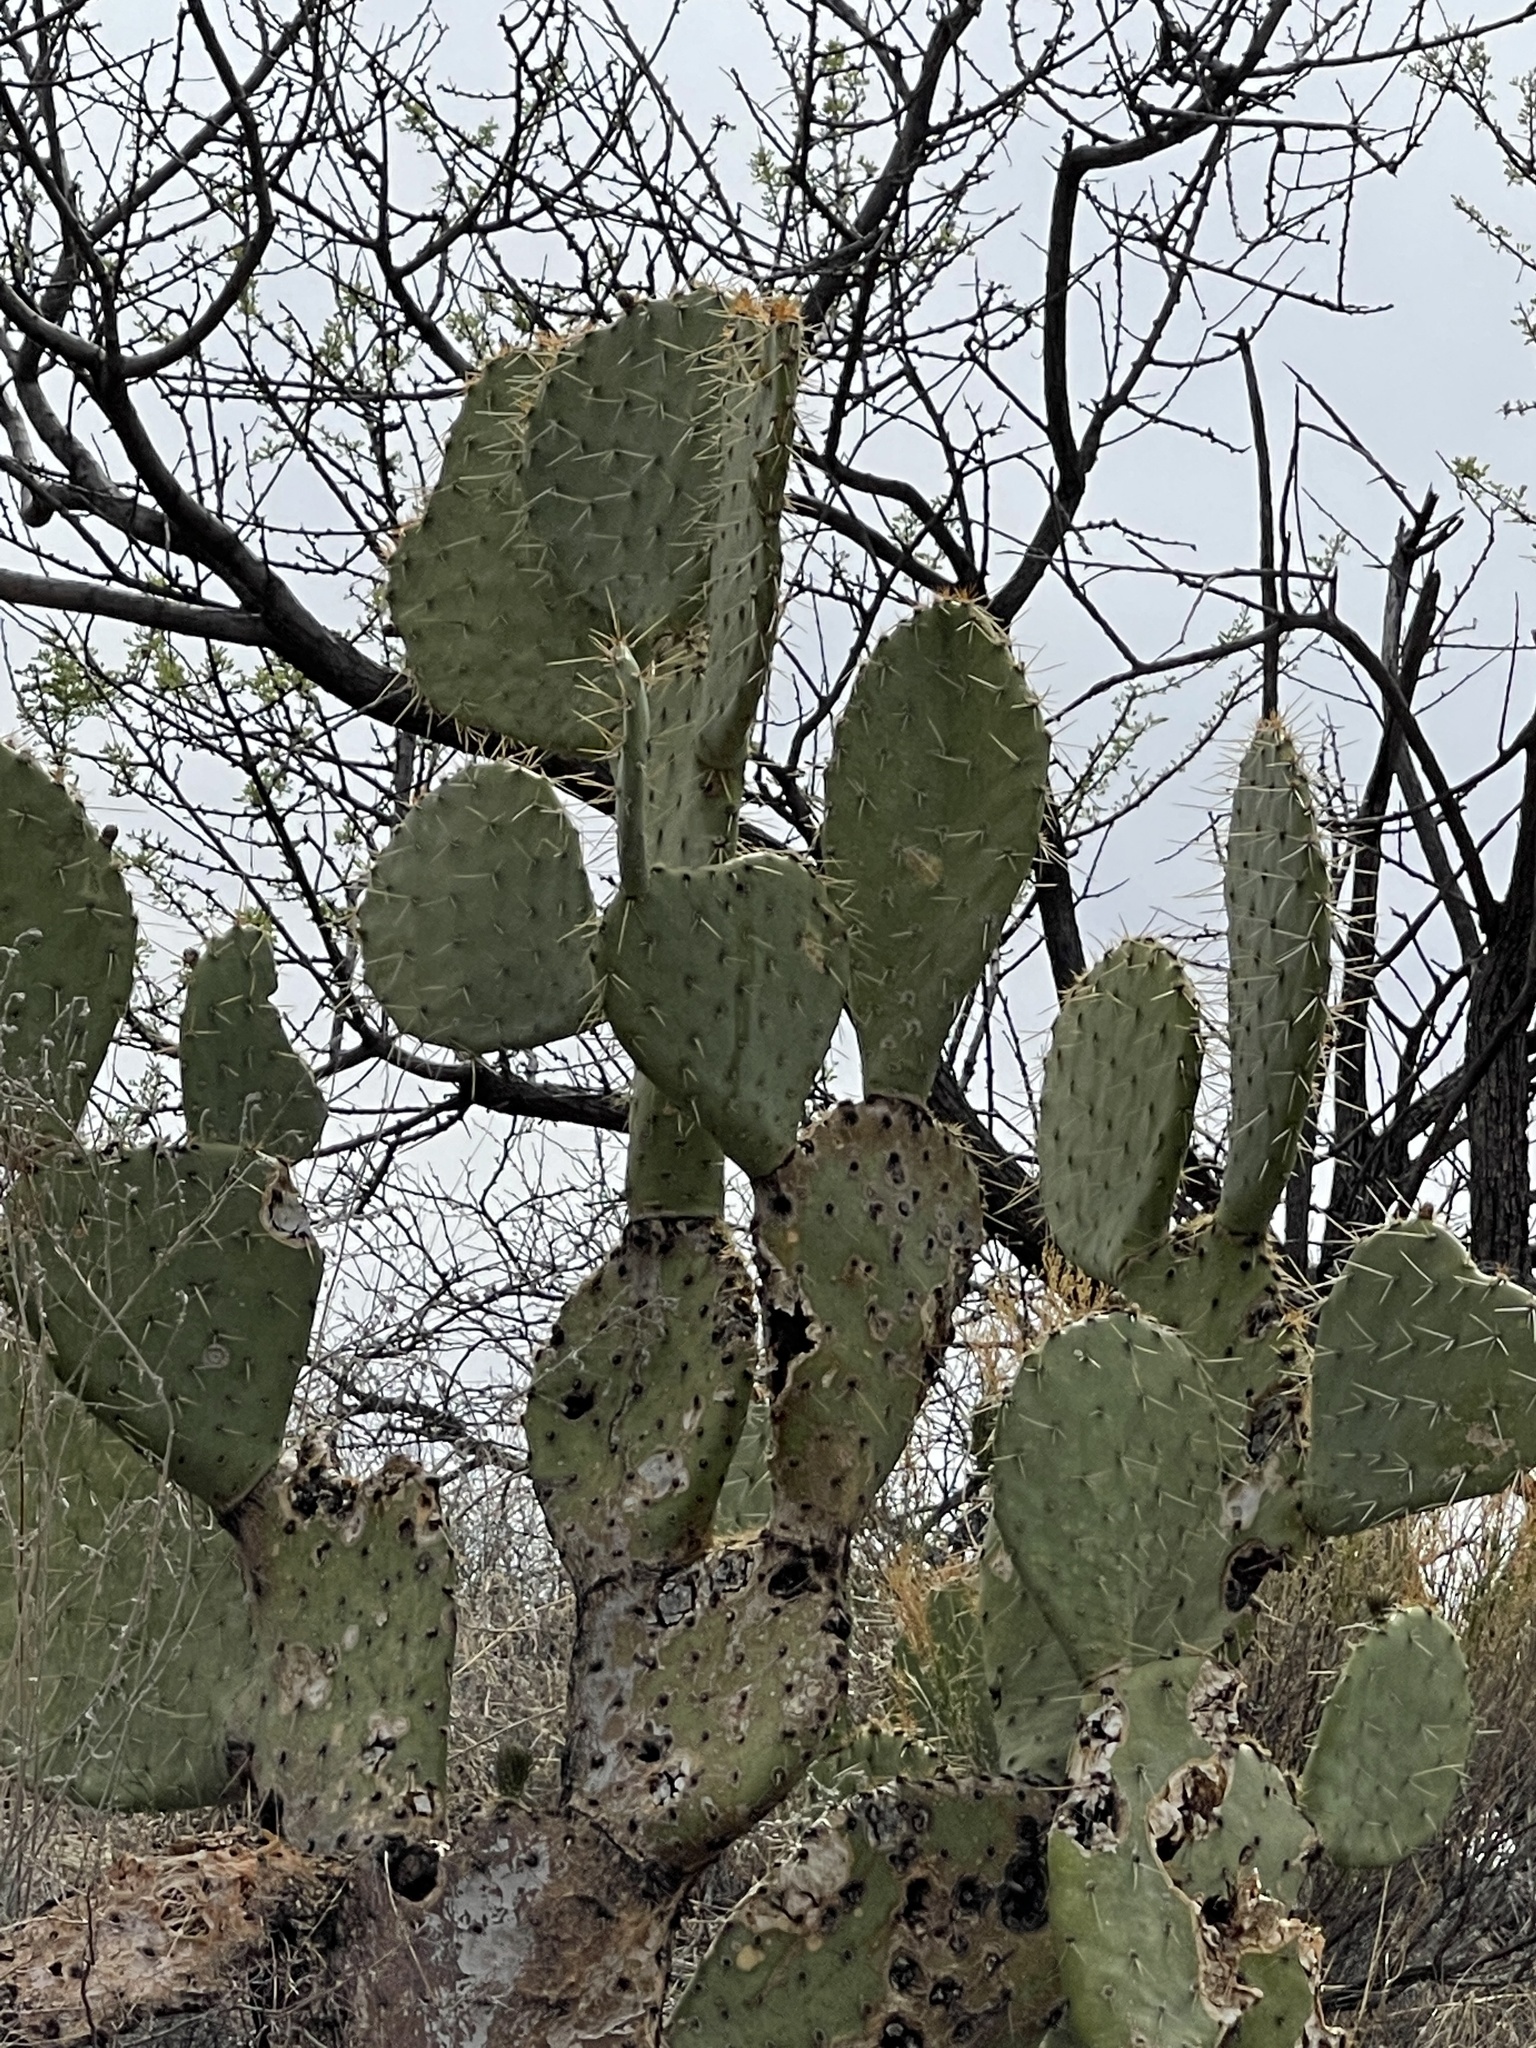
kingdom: Plantae
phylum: Tracheophyta
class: Magnoliopsida
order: Caryophyllales
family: Cactaceae
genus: Opuntia
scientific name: Opuntia engelmannii
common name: Cactus-apple
